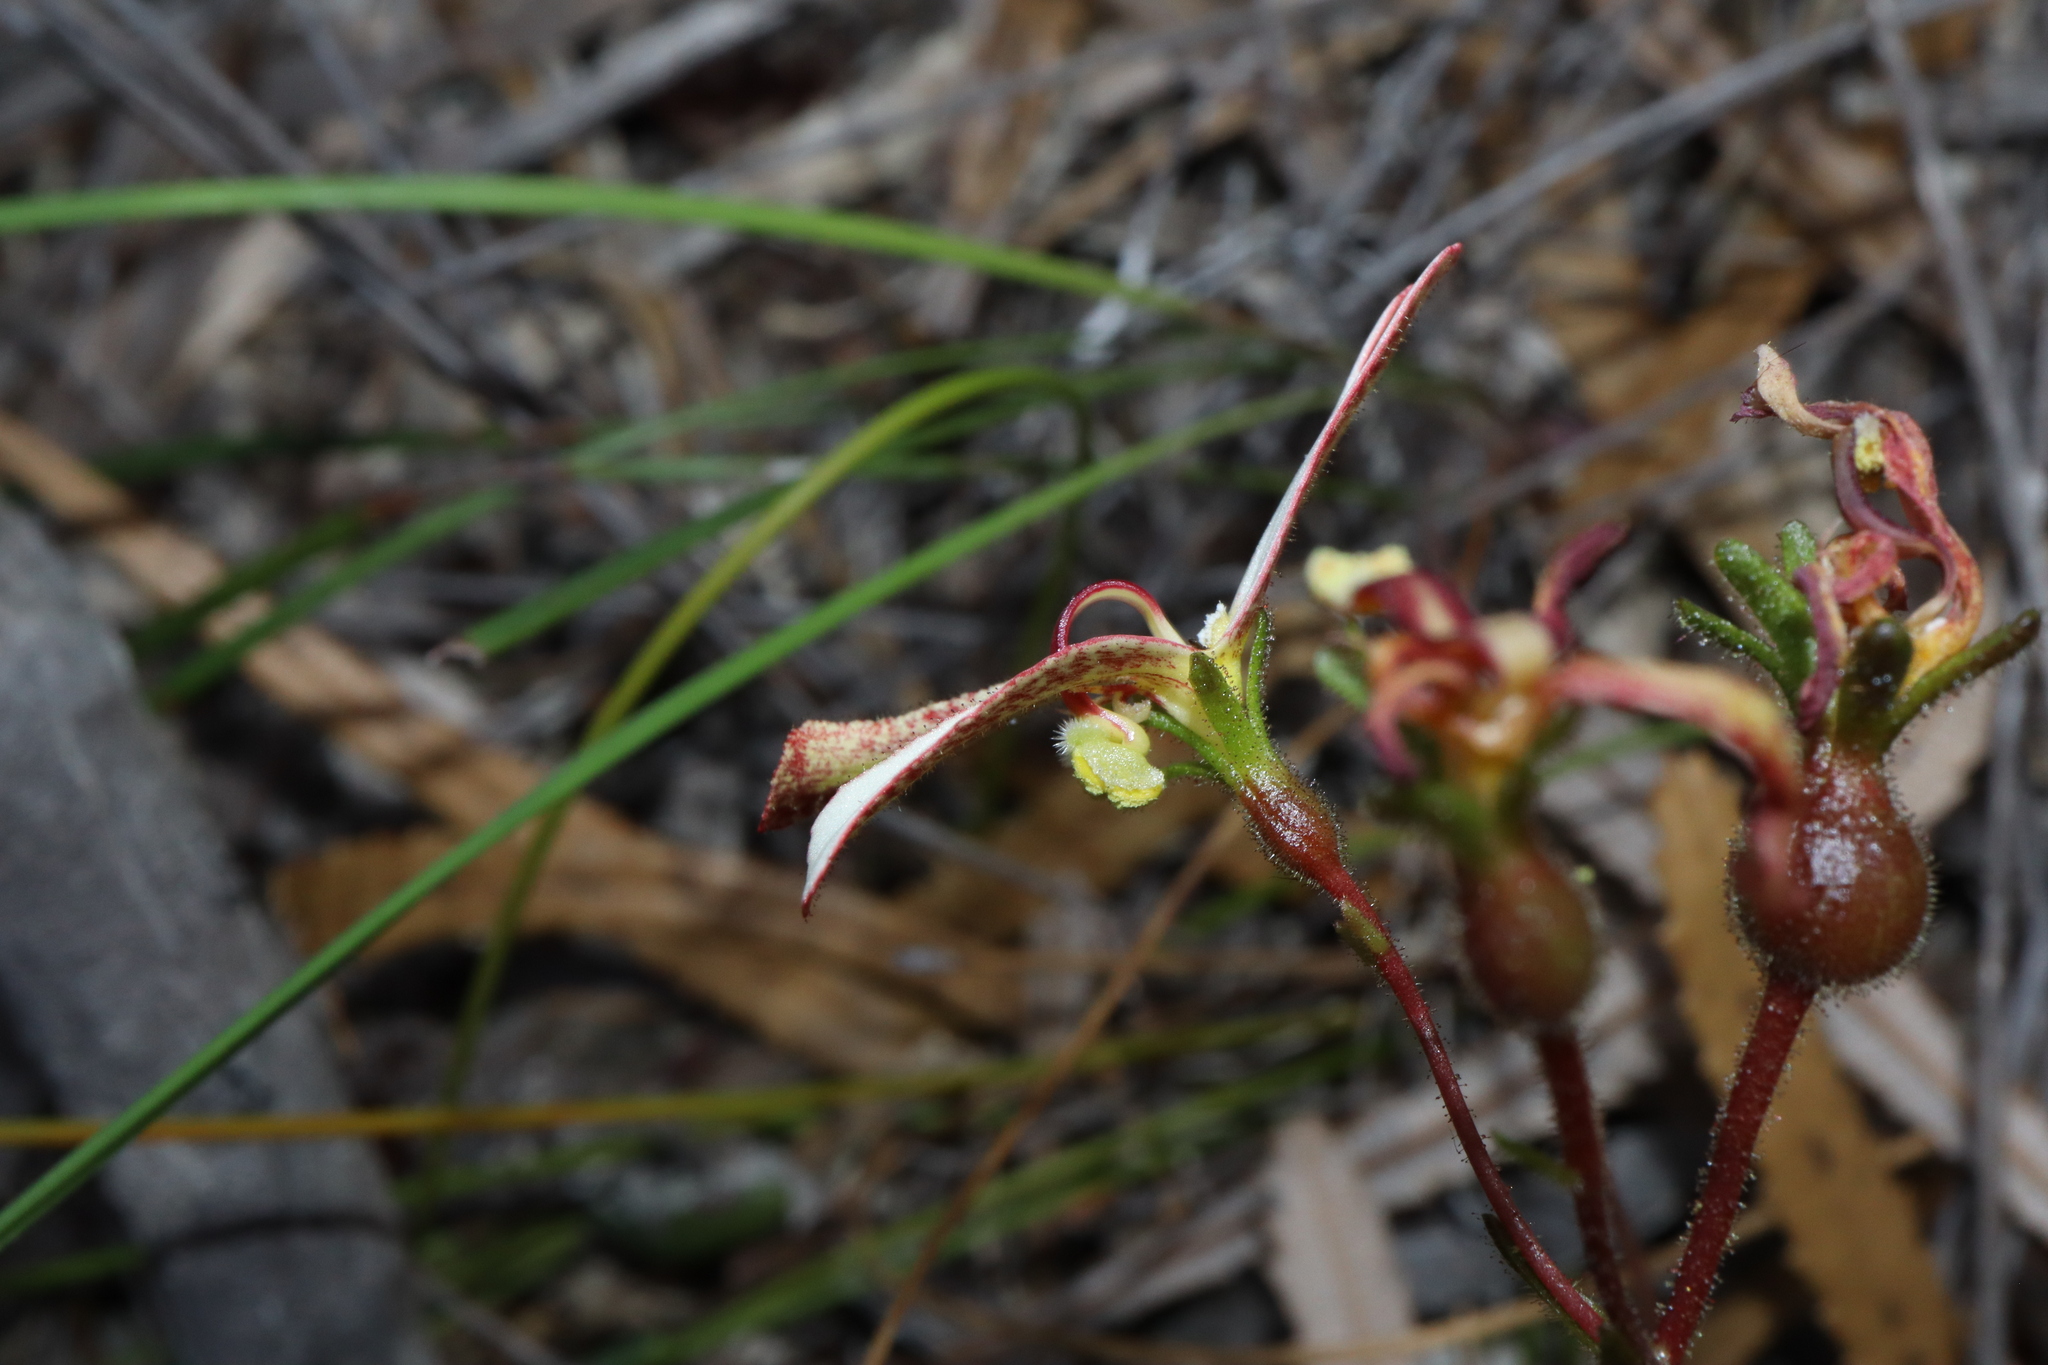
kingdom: Plantae
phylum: Tracheophyta
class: Magnoliopsida
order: Asterales
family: Stylidiaceae
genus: Stylidium
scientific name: Stylidium schoenoides
